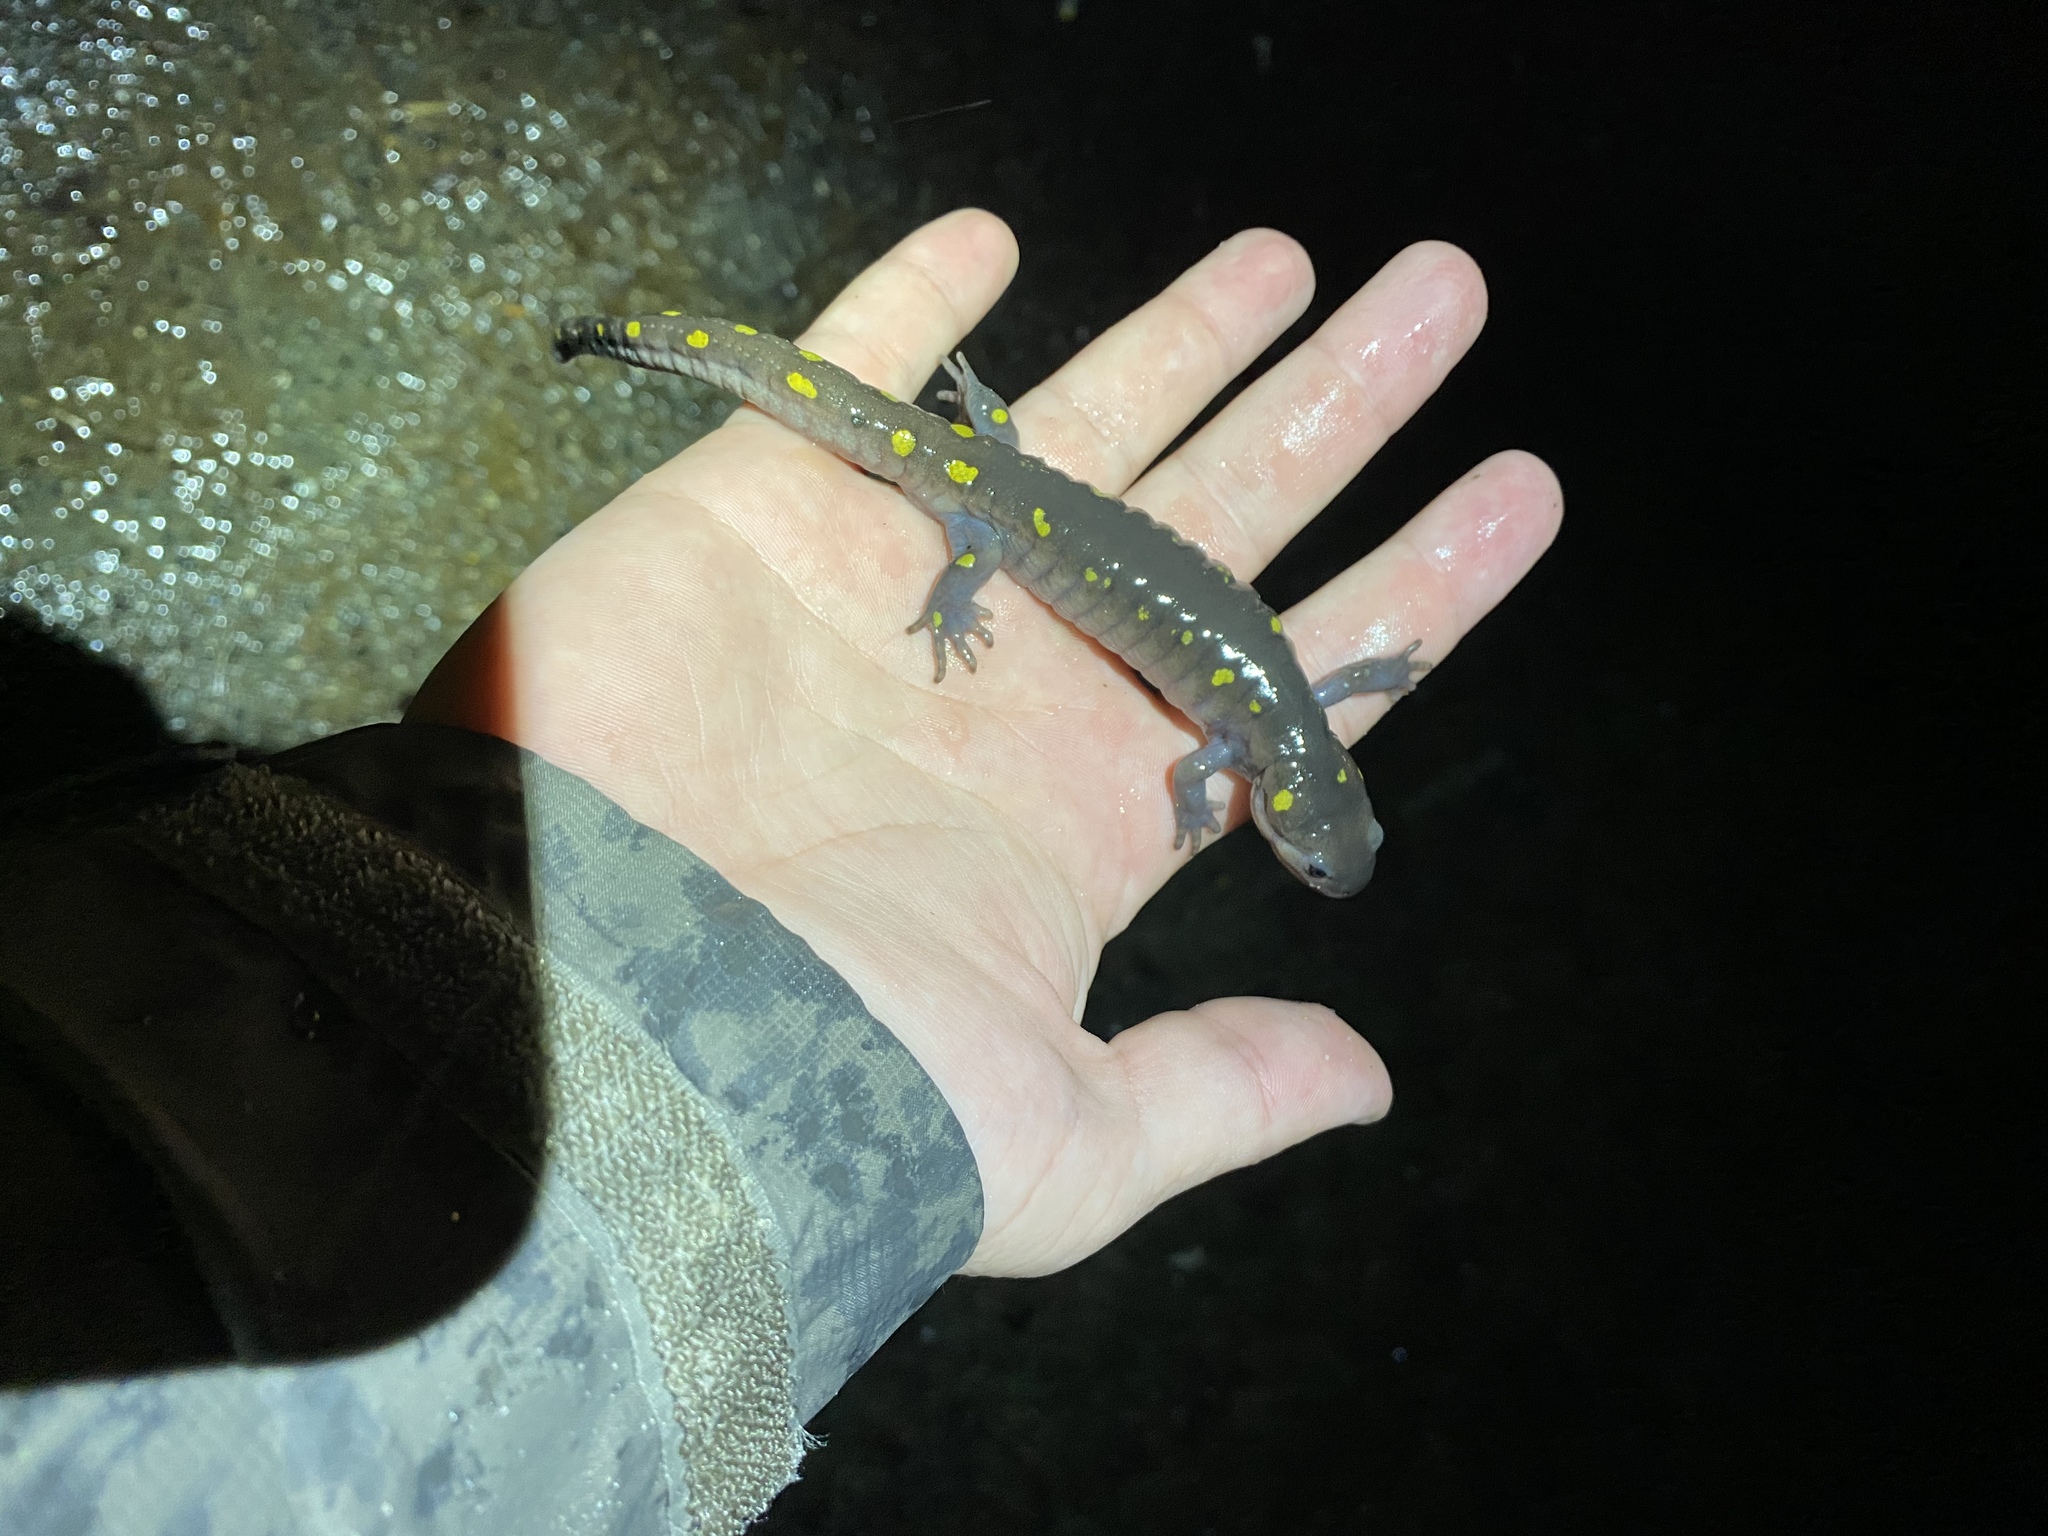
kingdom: Animalia
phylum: Chordata
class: Amphibia
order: Caudata
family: Ambystomatidae
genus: Ambystoma
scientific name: Ambystoma maculatum
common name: Spotted salamander
